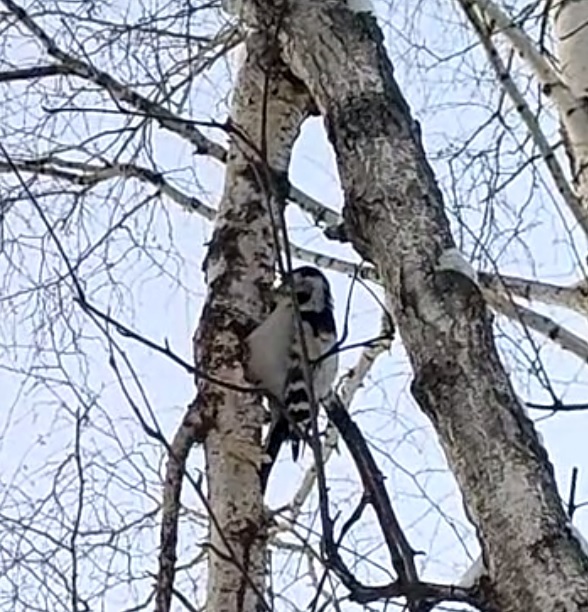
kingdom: Animalia
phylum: Chordata
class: Aves
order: Piciformes
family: Picidae
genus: Dryobates
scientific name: Dryobates minor
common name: Lesser spotted woodpecker
